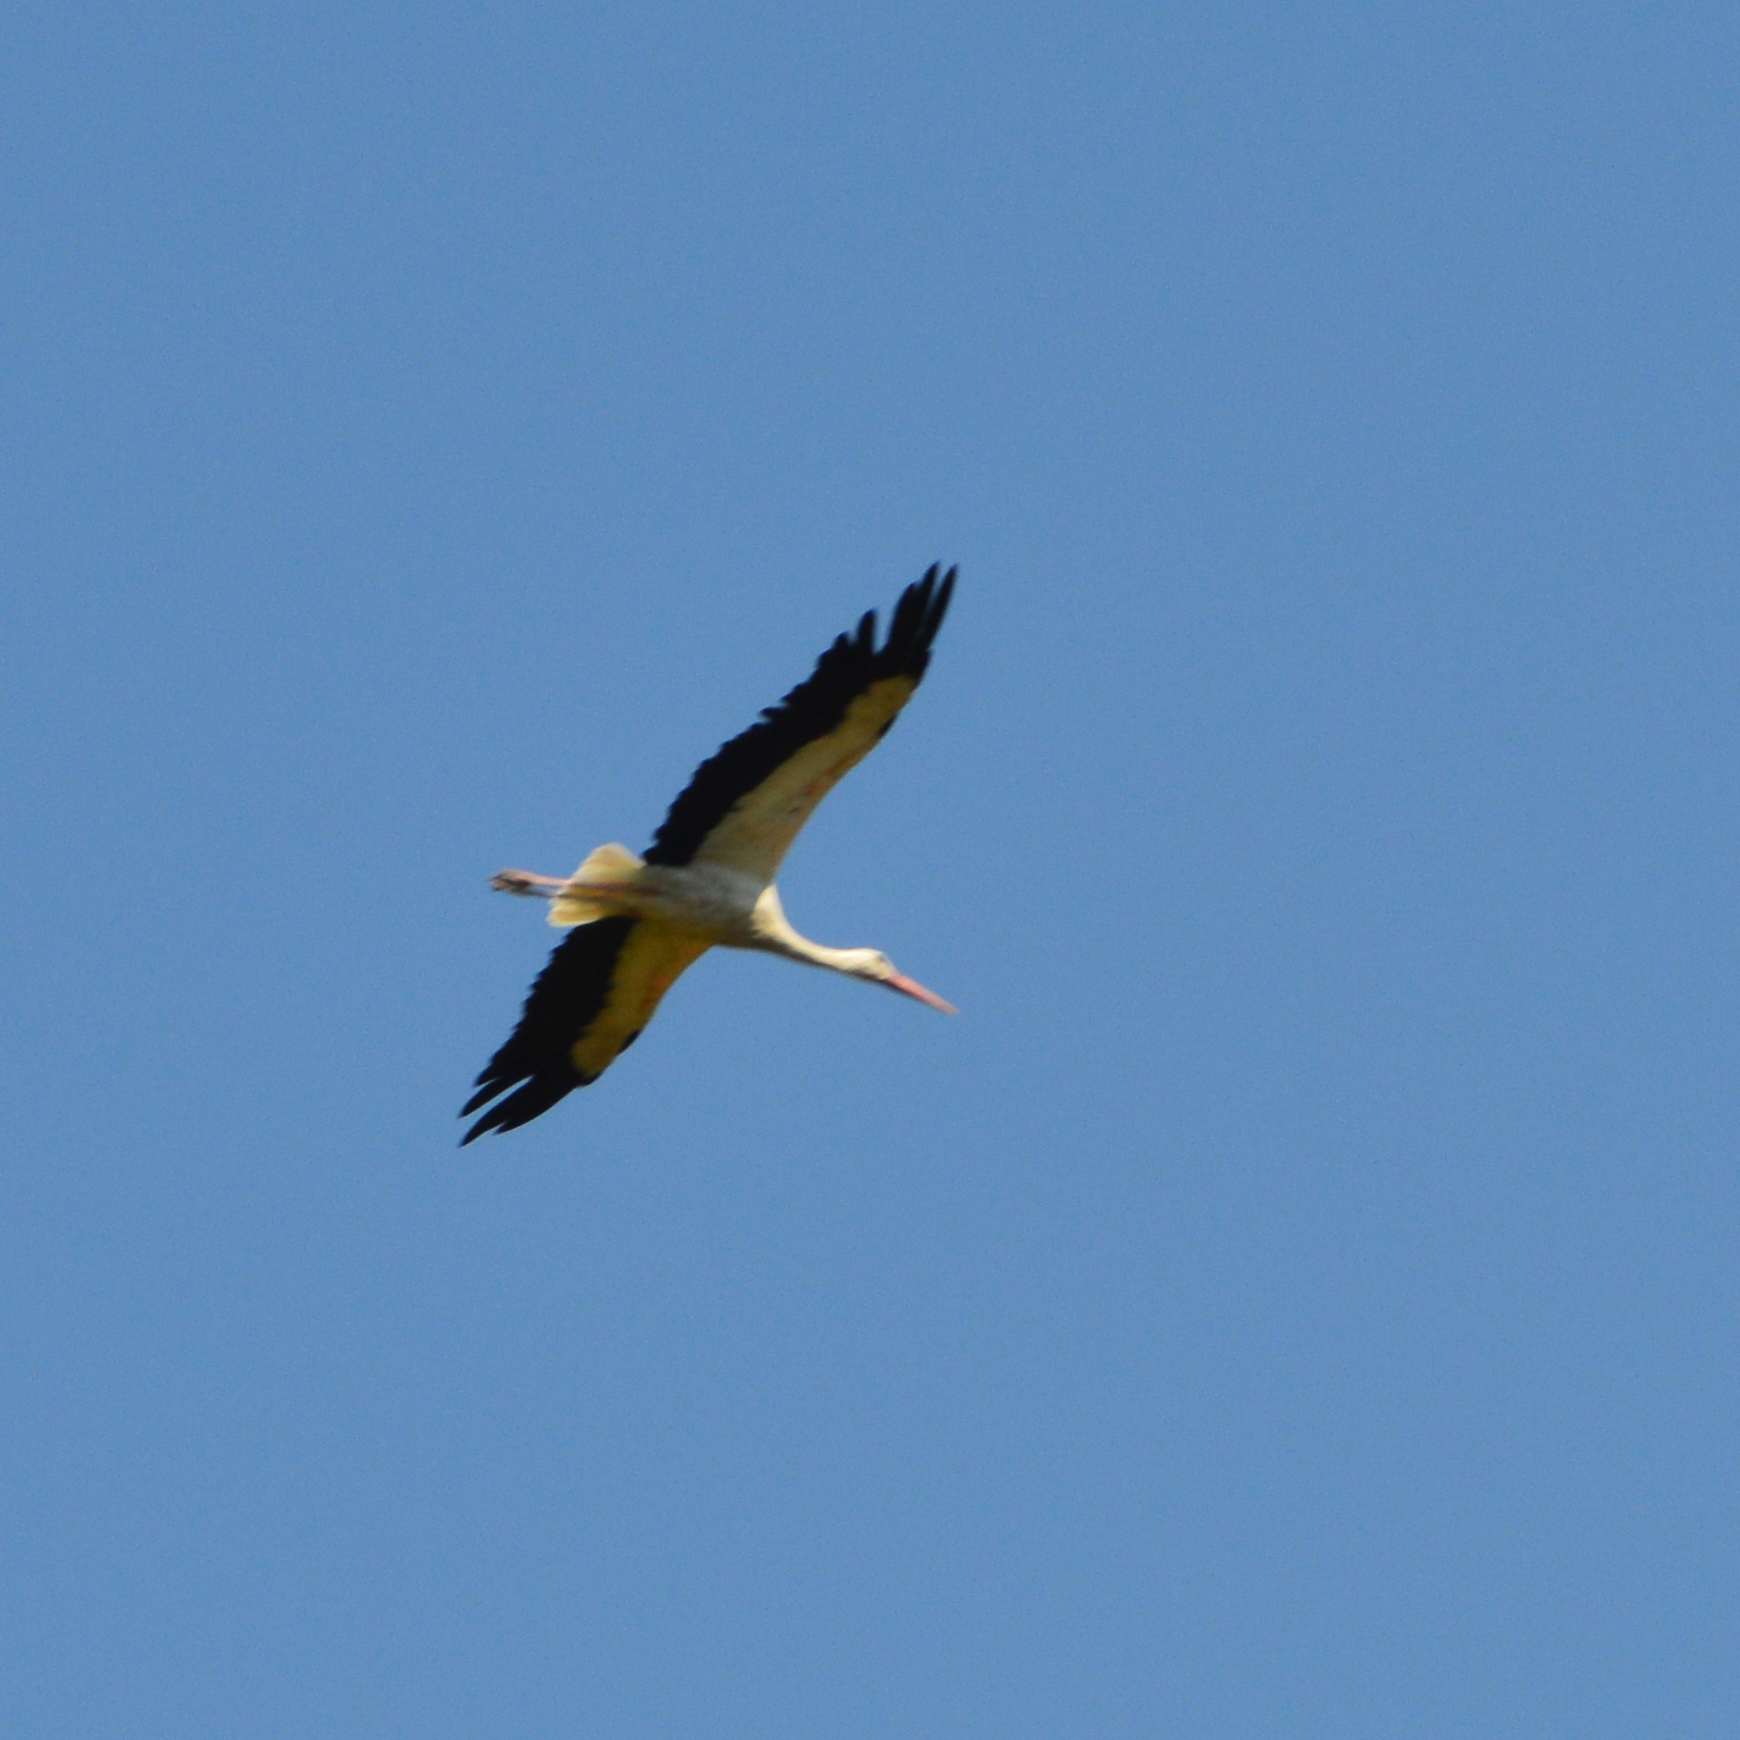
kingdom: Animalia
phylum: Chordata
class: Aves
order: Ciconiiformes
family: Ciconiidae
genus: Ciconia
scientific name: Ciconia ciconia
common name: White stork
